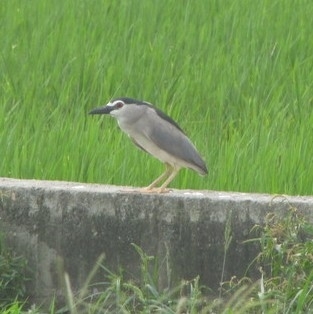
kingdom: Animalia
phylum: Chordata
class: Aves
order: Pelecaniformes
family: Ardeidae
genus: Nycticorax
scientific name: Nycticorax nycticorax
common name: Black-crowned night heron
